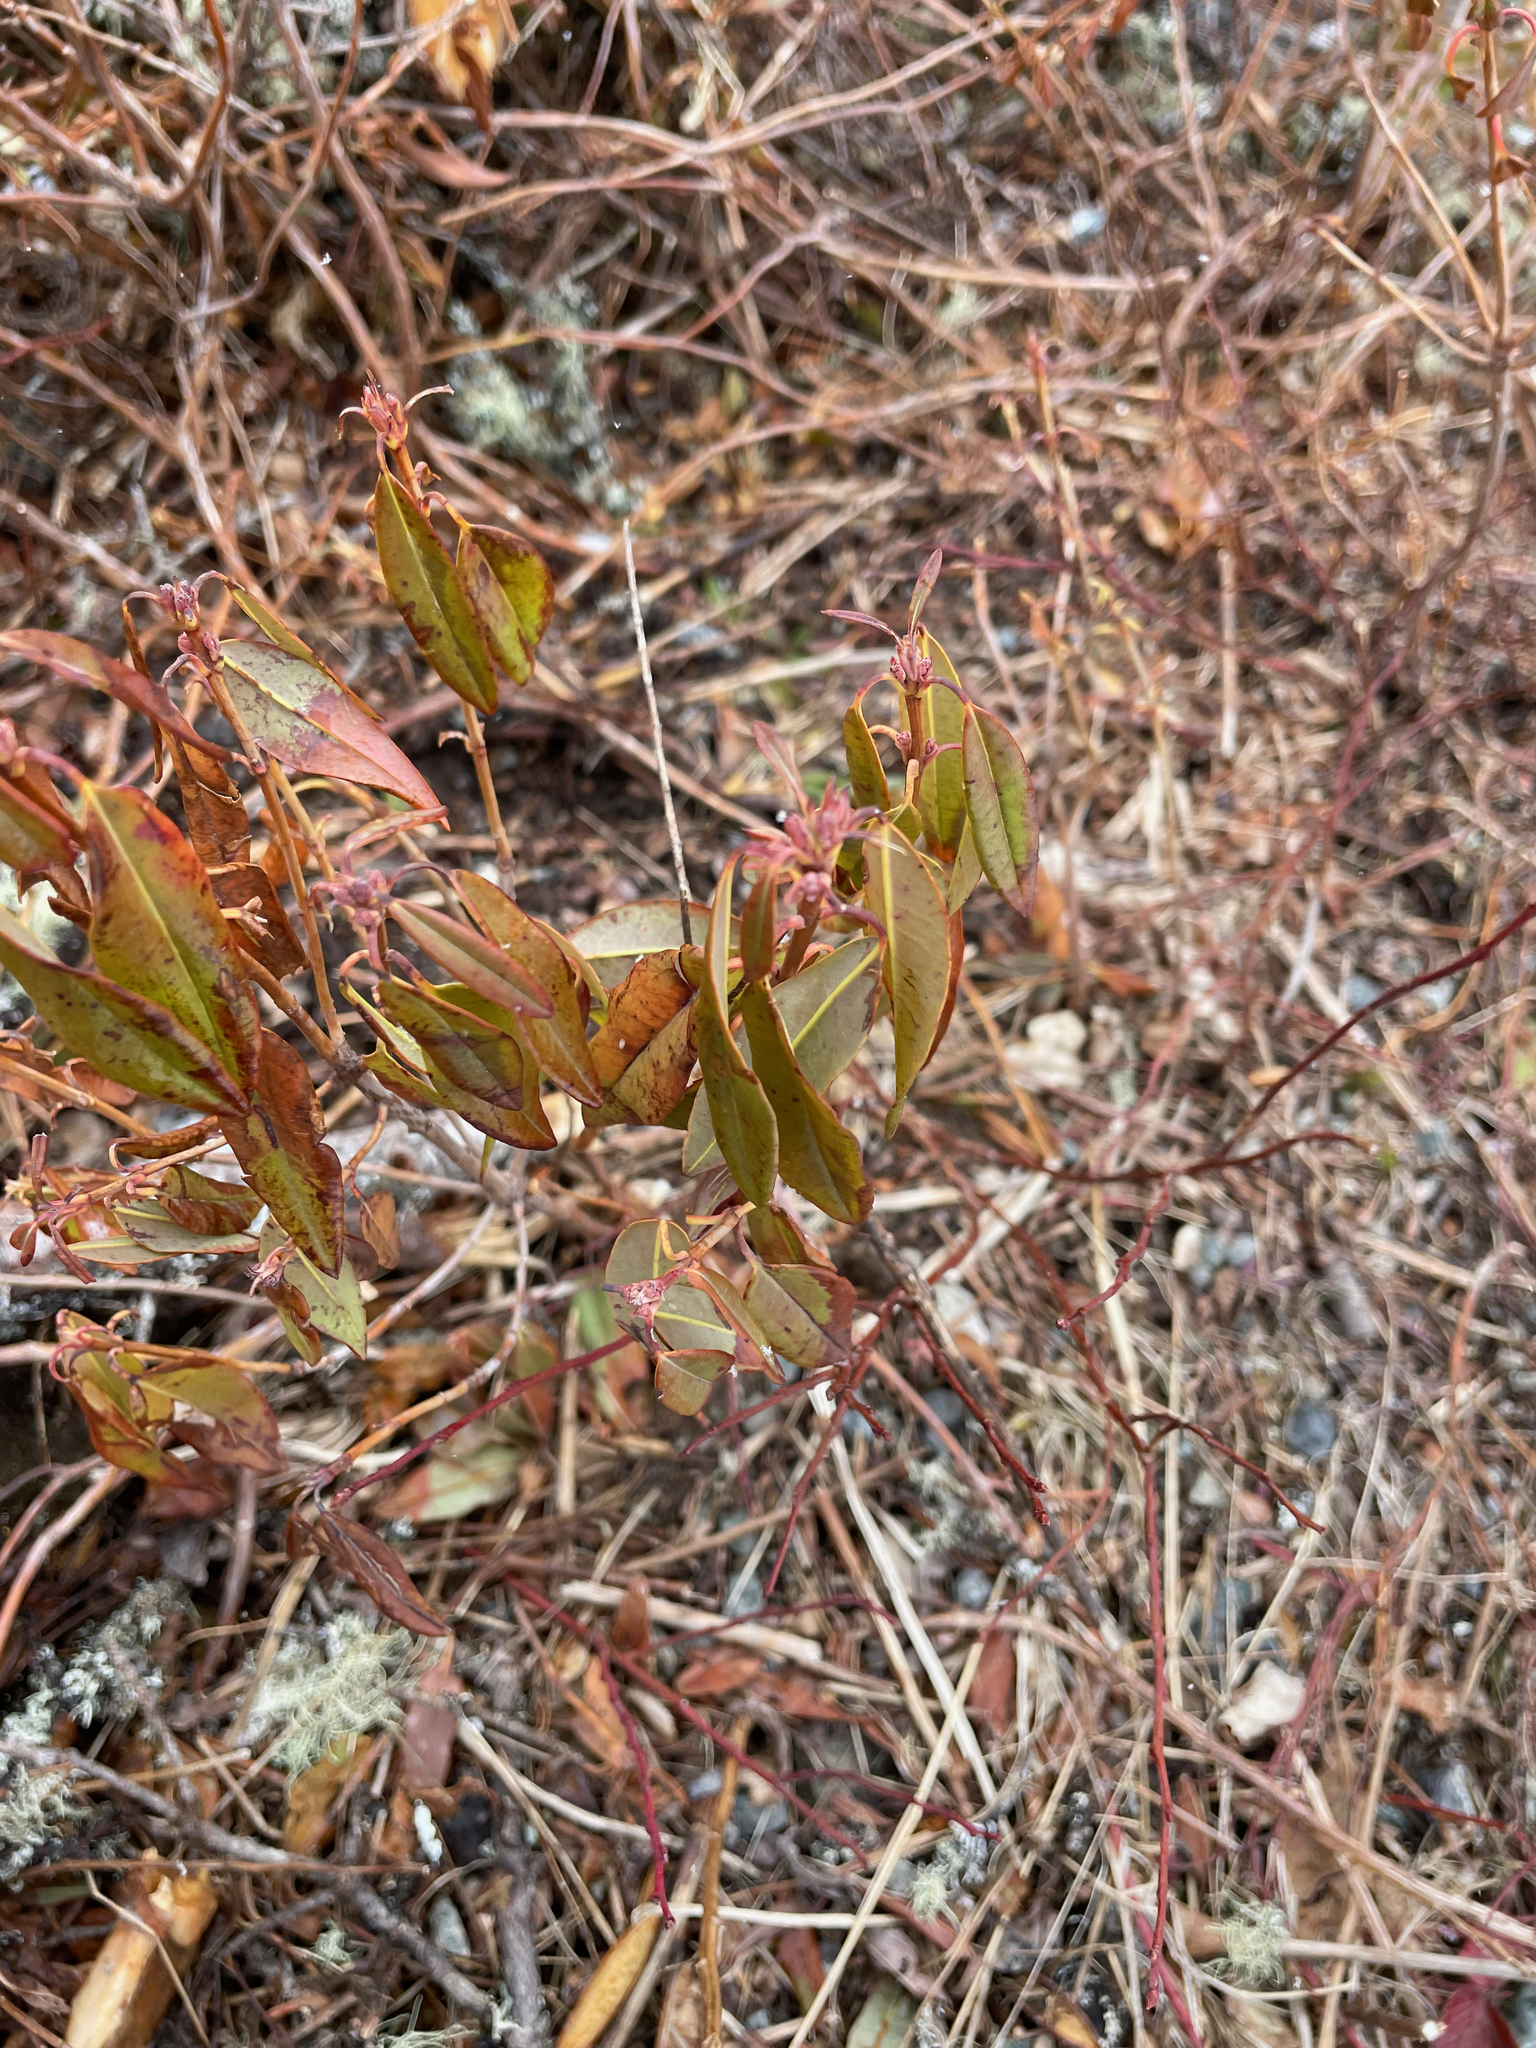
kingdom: Plantae
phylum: Tracheophyta
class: Magnoliopsida
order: Ericales
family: Ericaceae
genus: Kalmia
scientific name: Kalmia angustifolia
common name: Sheep-laurel
